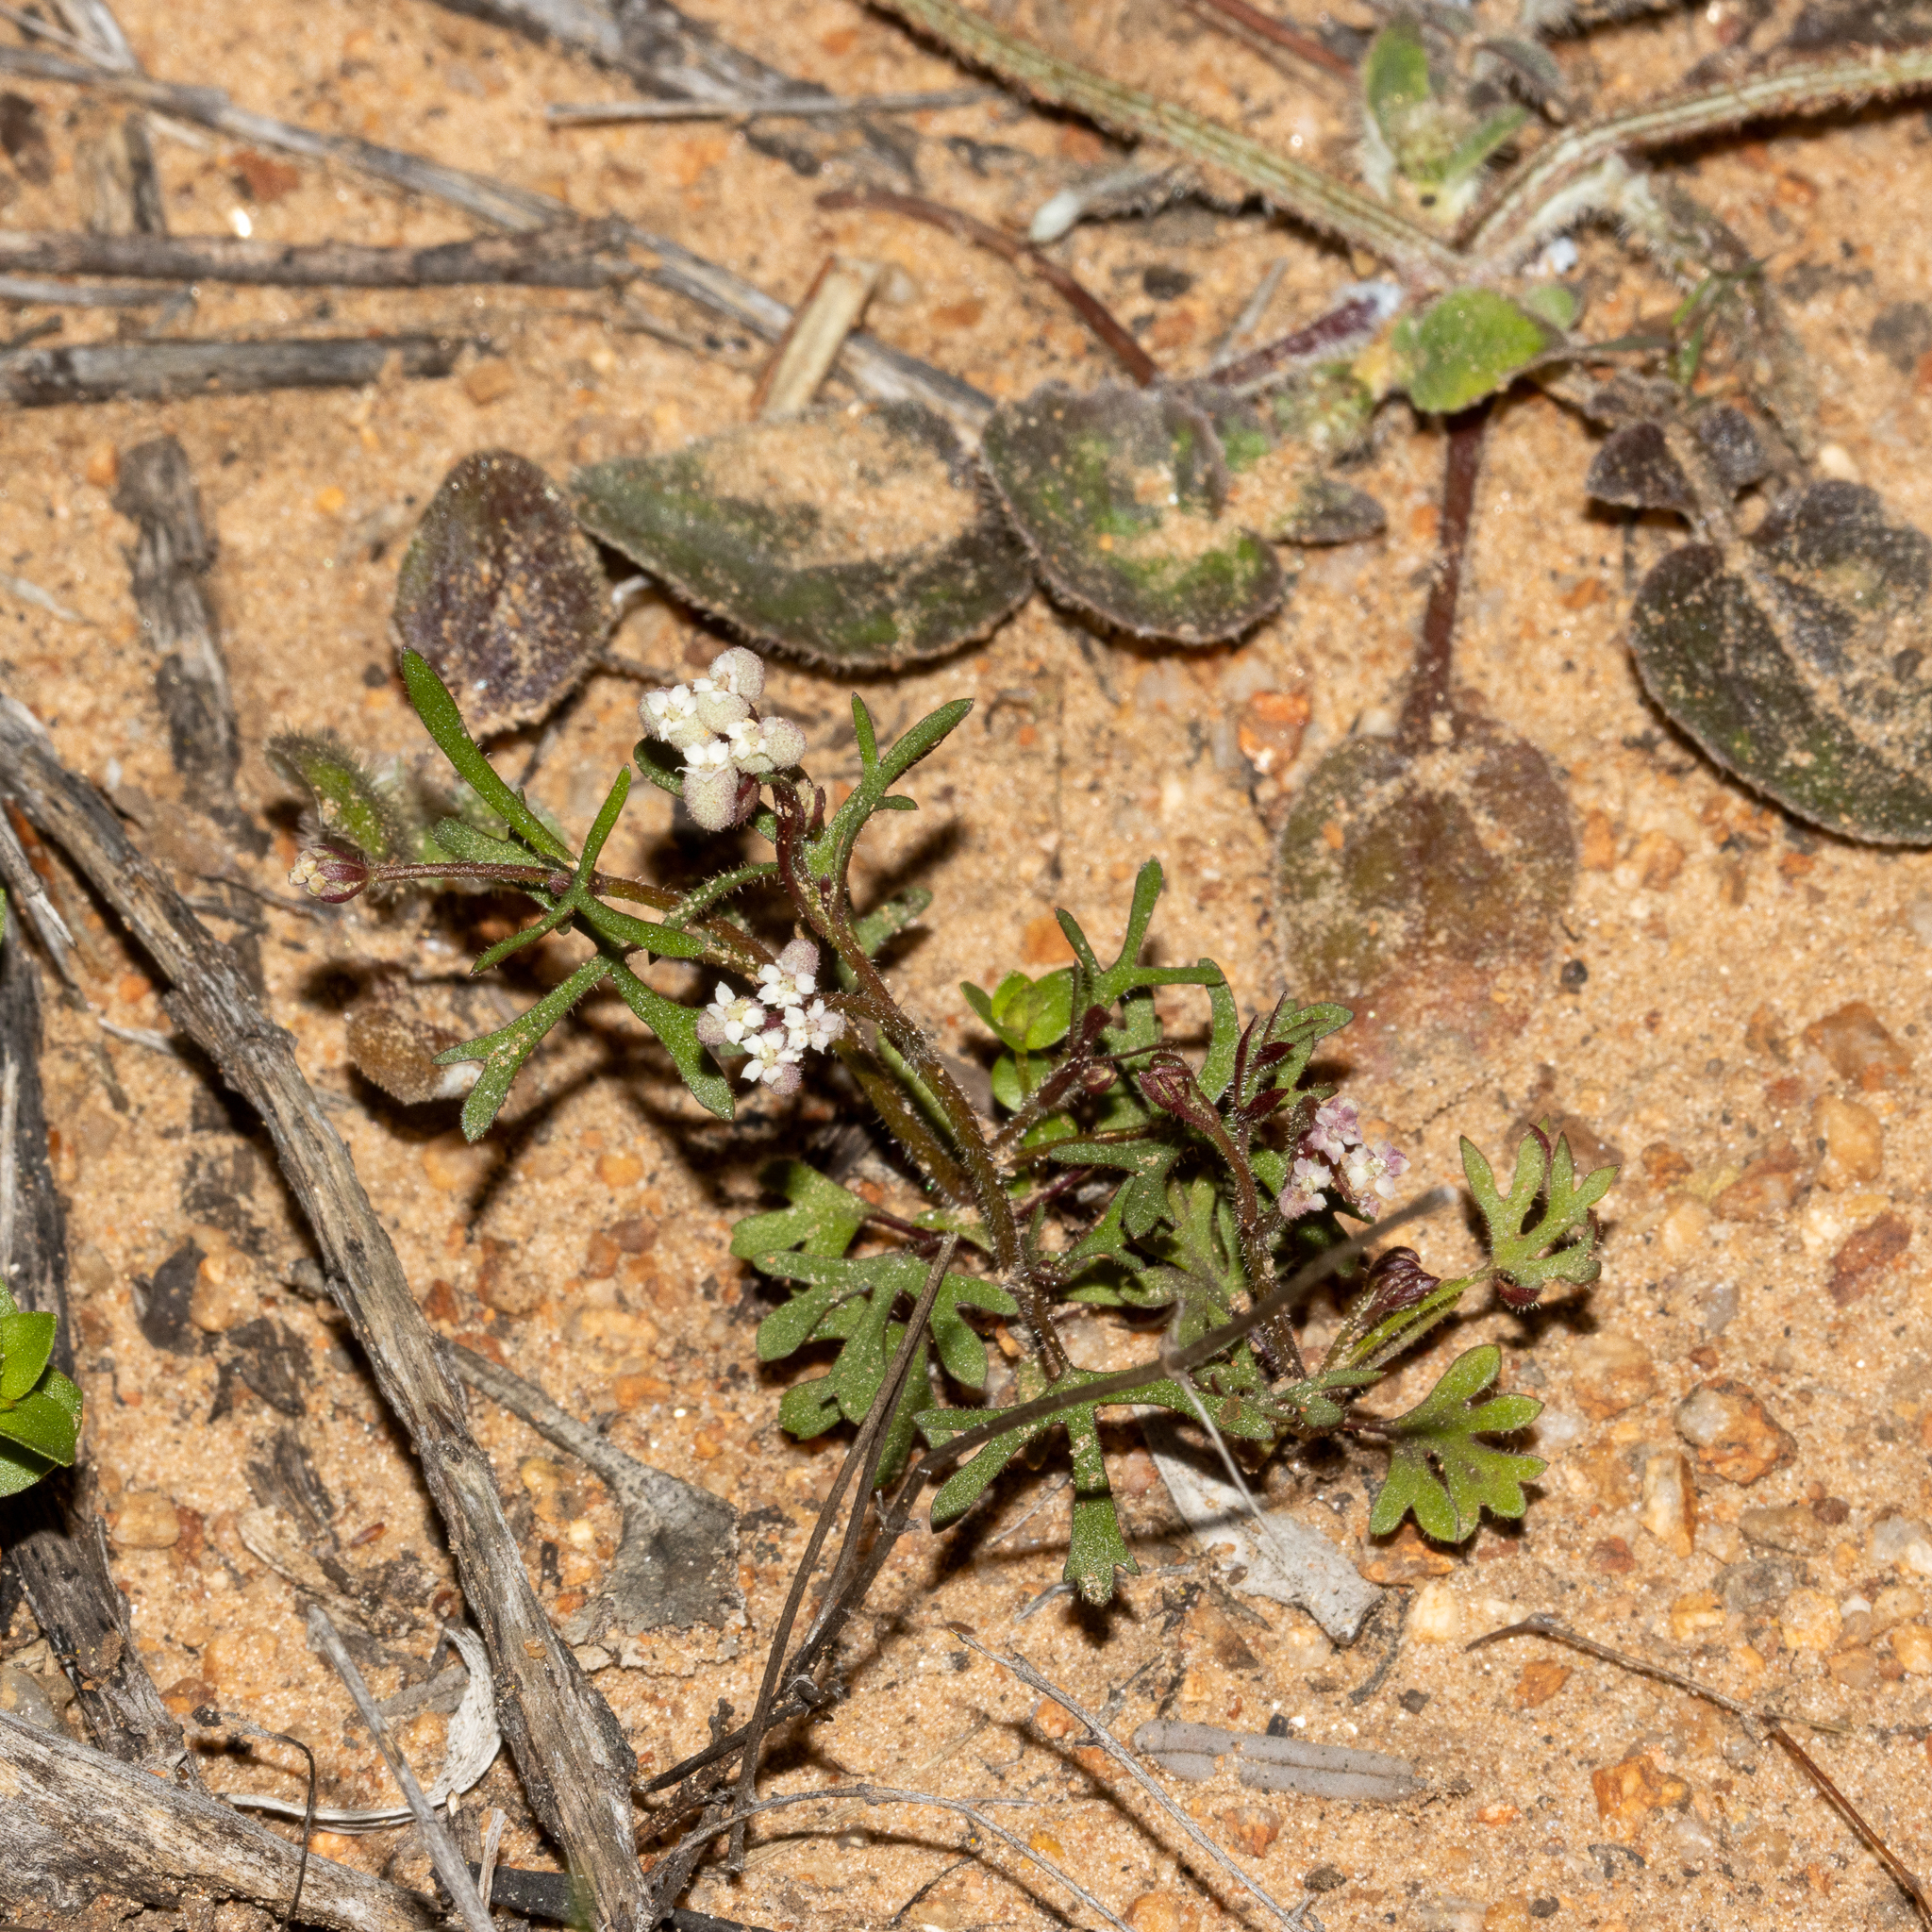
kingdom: Plantae
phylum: Tracheophyta
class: Magnoliopsida
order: Apiales
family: Araliaceae
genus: Trachymene
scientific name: Trachymene ornata
